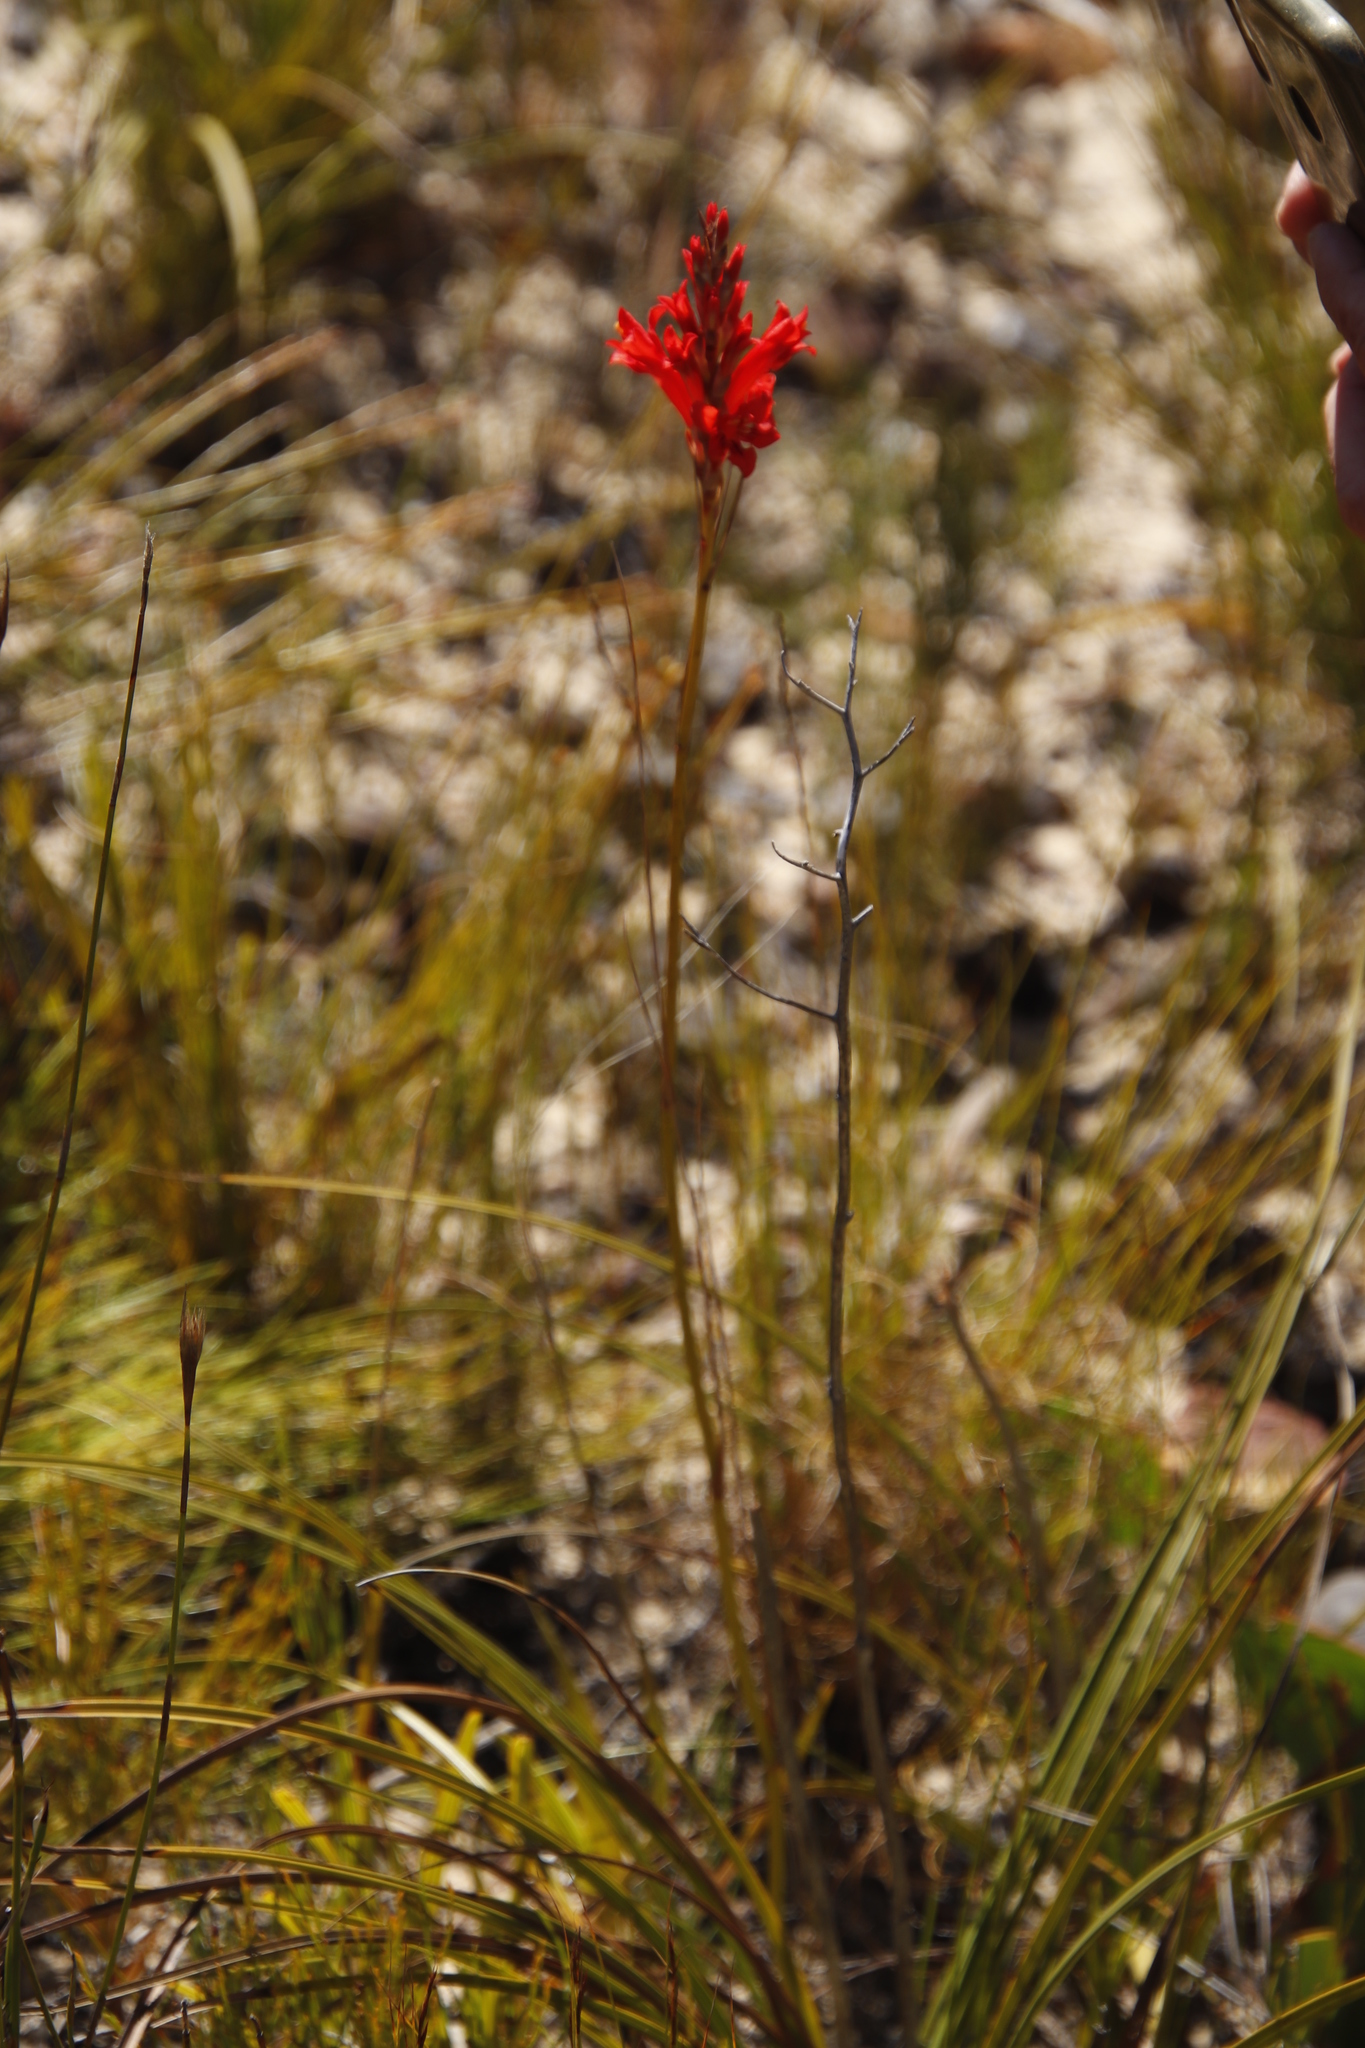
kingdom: Plantae
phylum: Tracheophyta
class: Liliopsida
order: Asparagales
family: Iridaceae
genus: Tritoniopsis
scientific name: Tritoniopsis triticea
